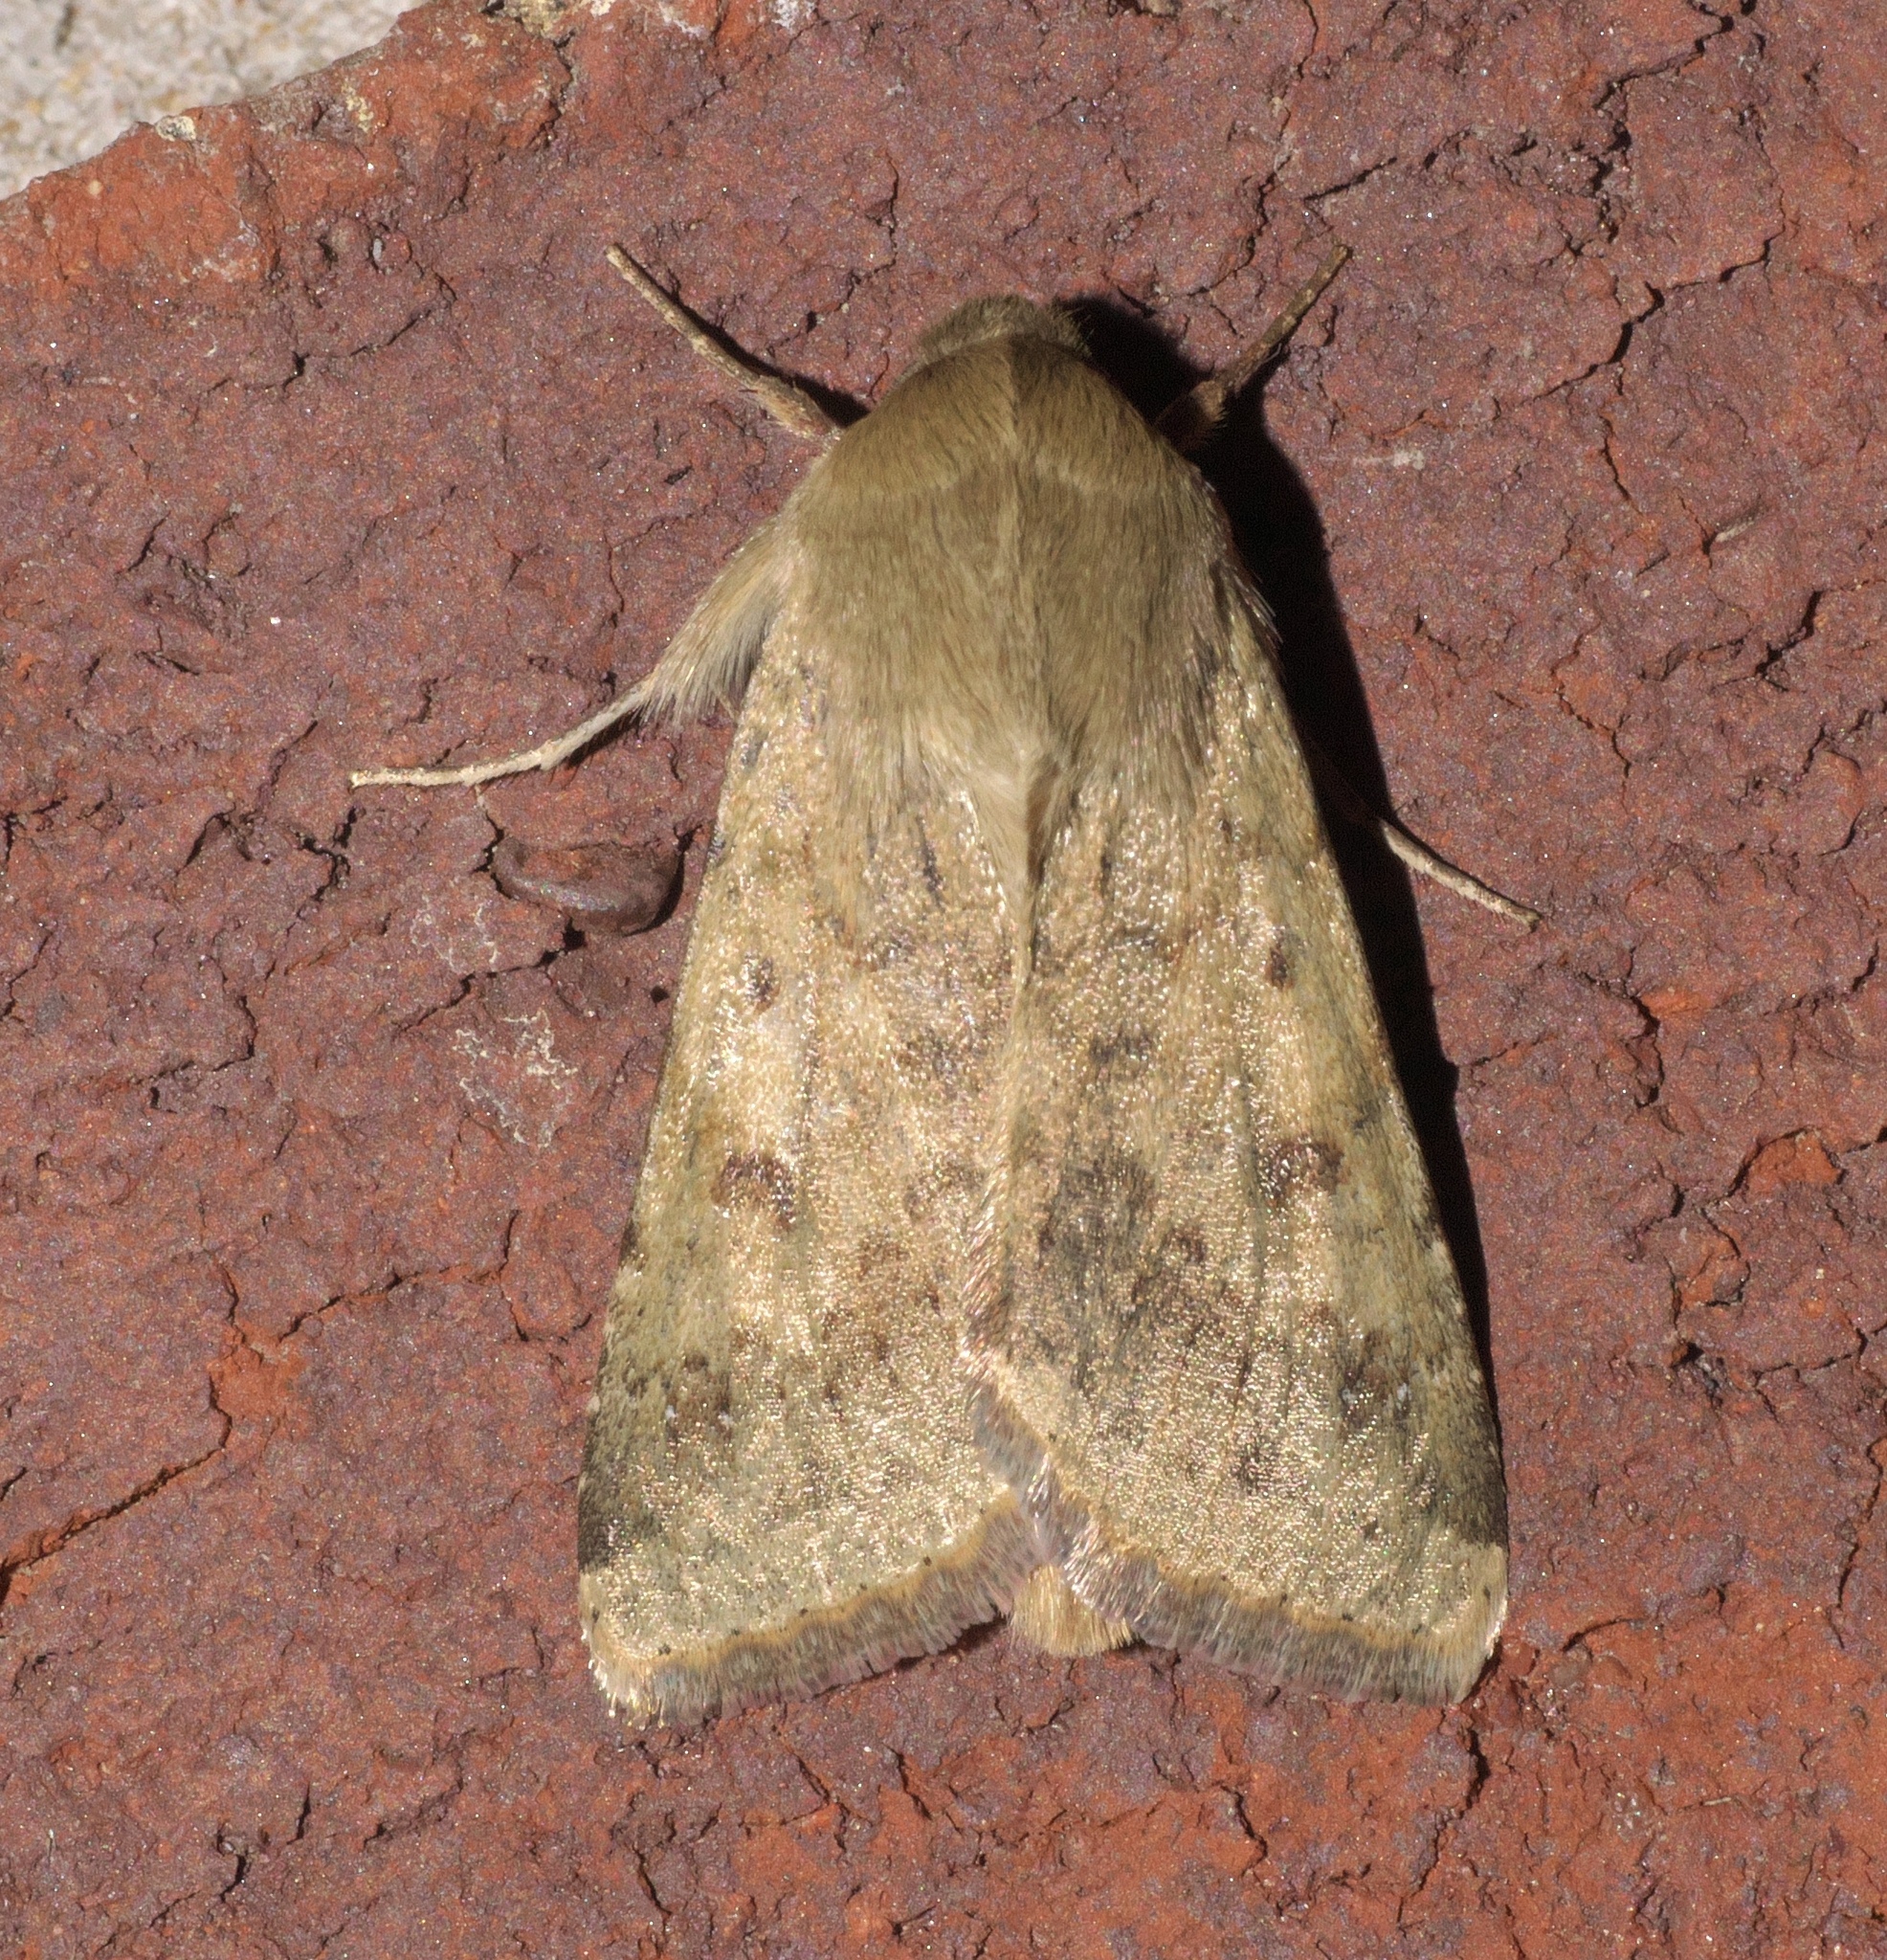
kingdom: Animalia
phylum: Arthropoda
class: Insecta
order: Lepidoptera
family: Noctuidae
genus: Helicoverpa
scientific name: Helicoverpa zea
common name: Bollworm
